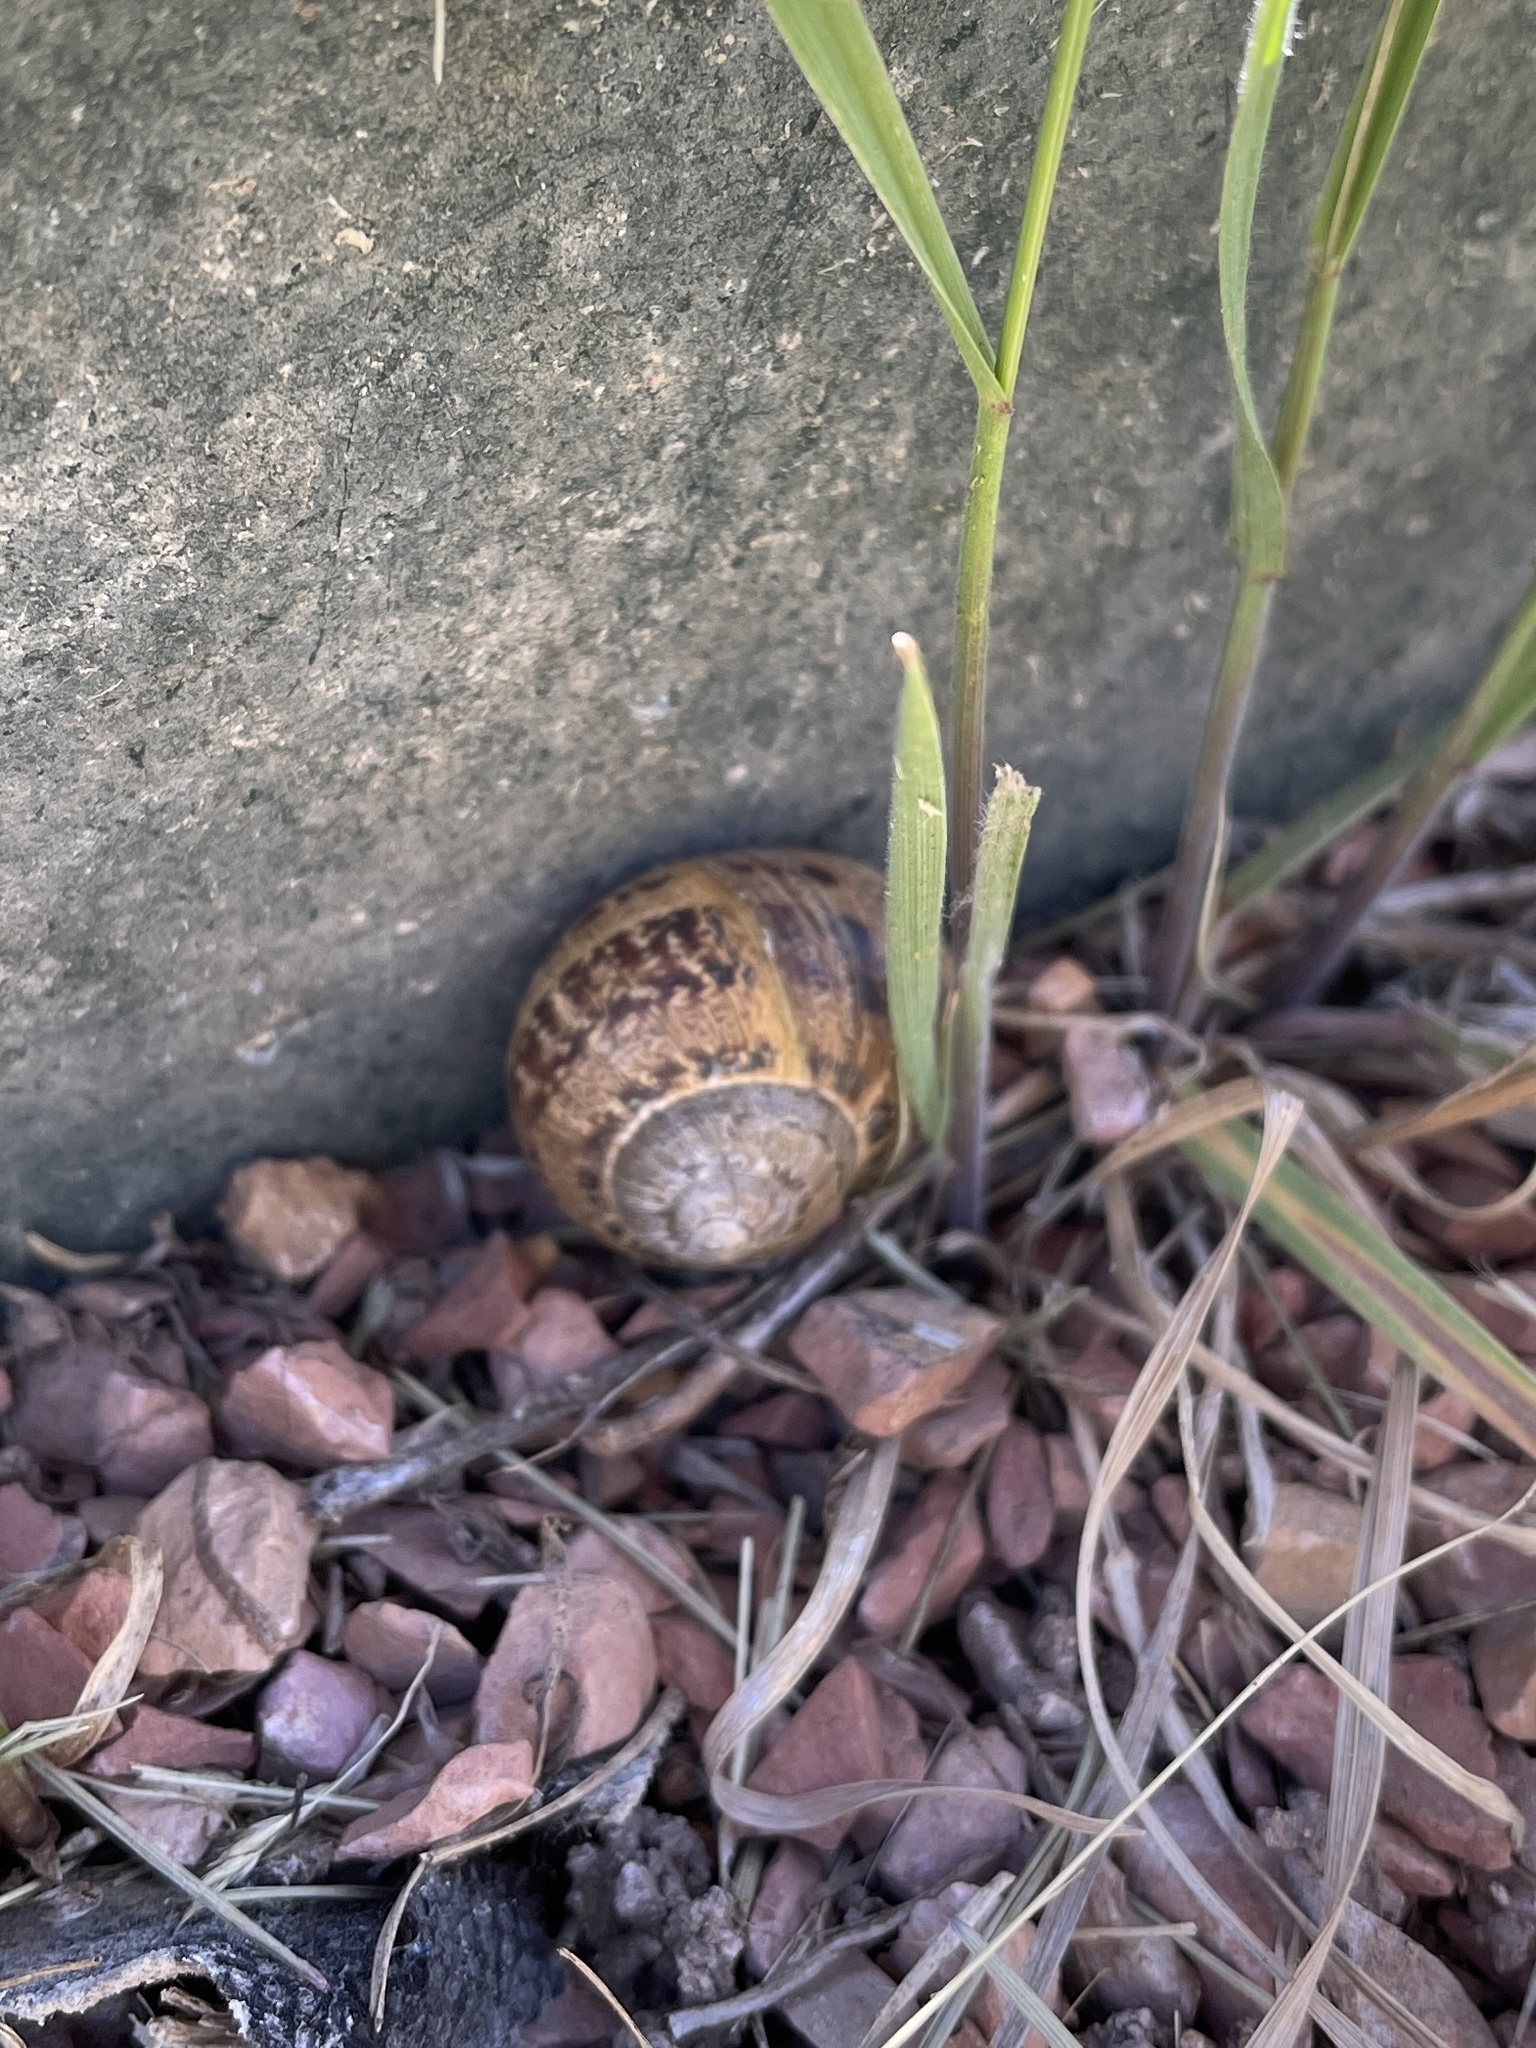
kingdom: Animalia
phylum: Mollusca
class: Gastropoda
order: Stylommatophora
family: Helicidae
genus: Cornu
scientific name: Cornu aspersum
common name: Brown garden snail
